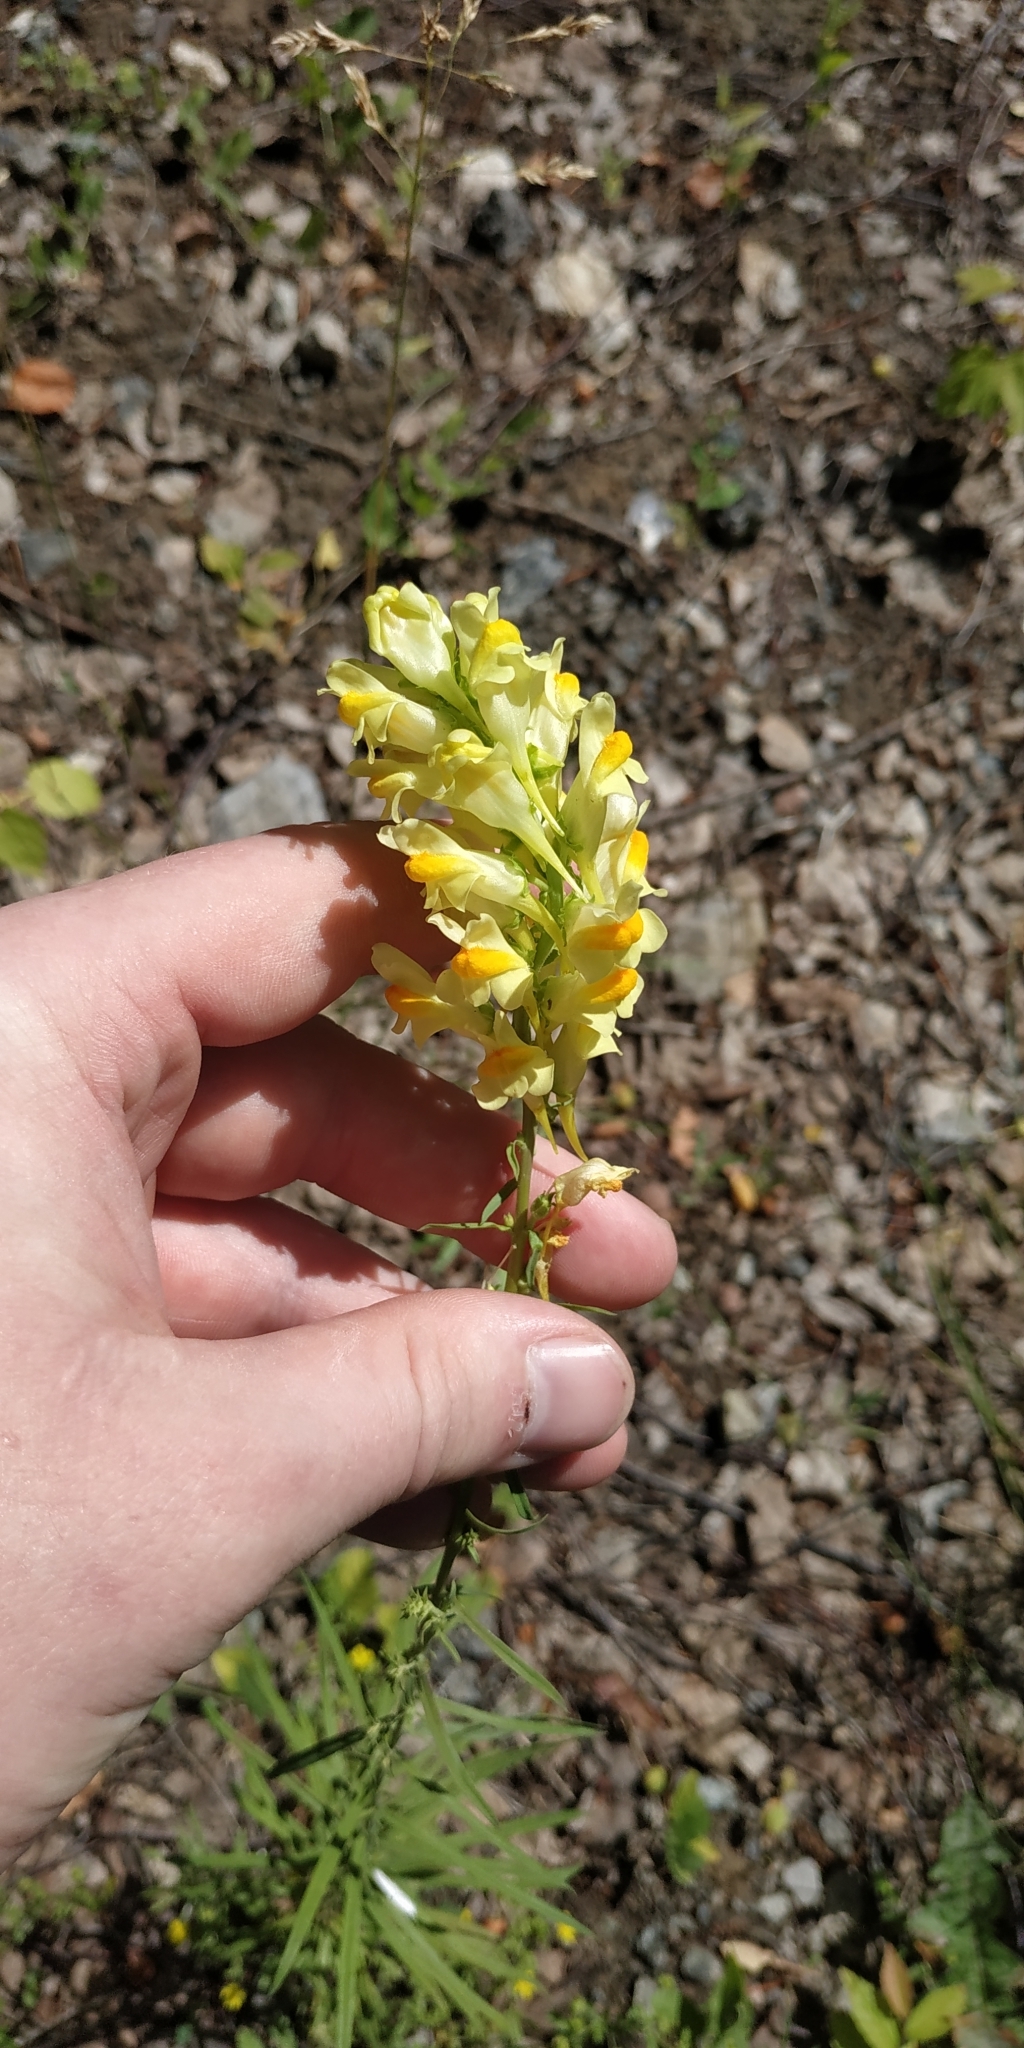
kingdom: Plantae
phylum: Tracheophyta
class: Magnoliopsida
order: Lamiales
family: Plantaginaceae
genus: Linaria
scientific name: Linaria vulgaris
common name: Butter and eggs
